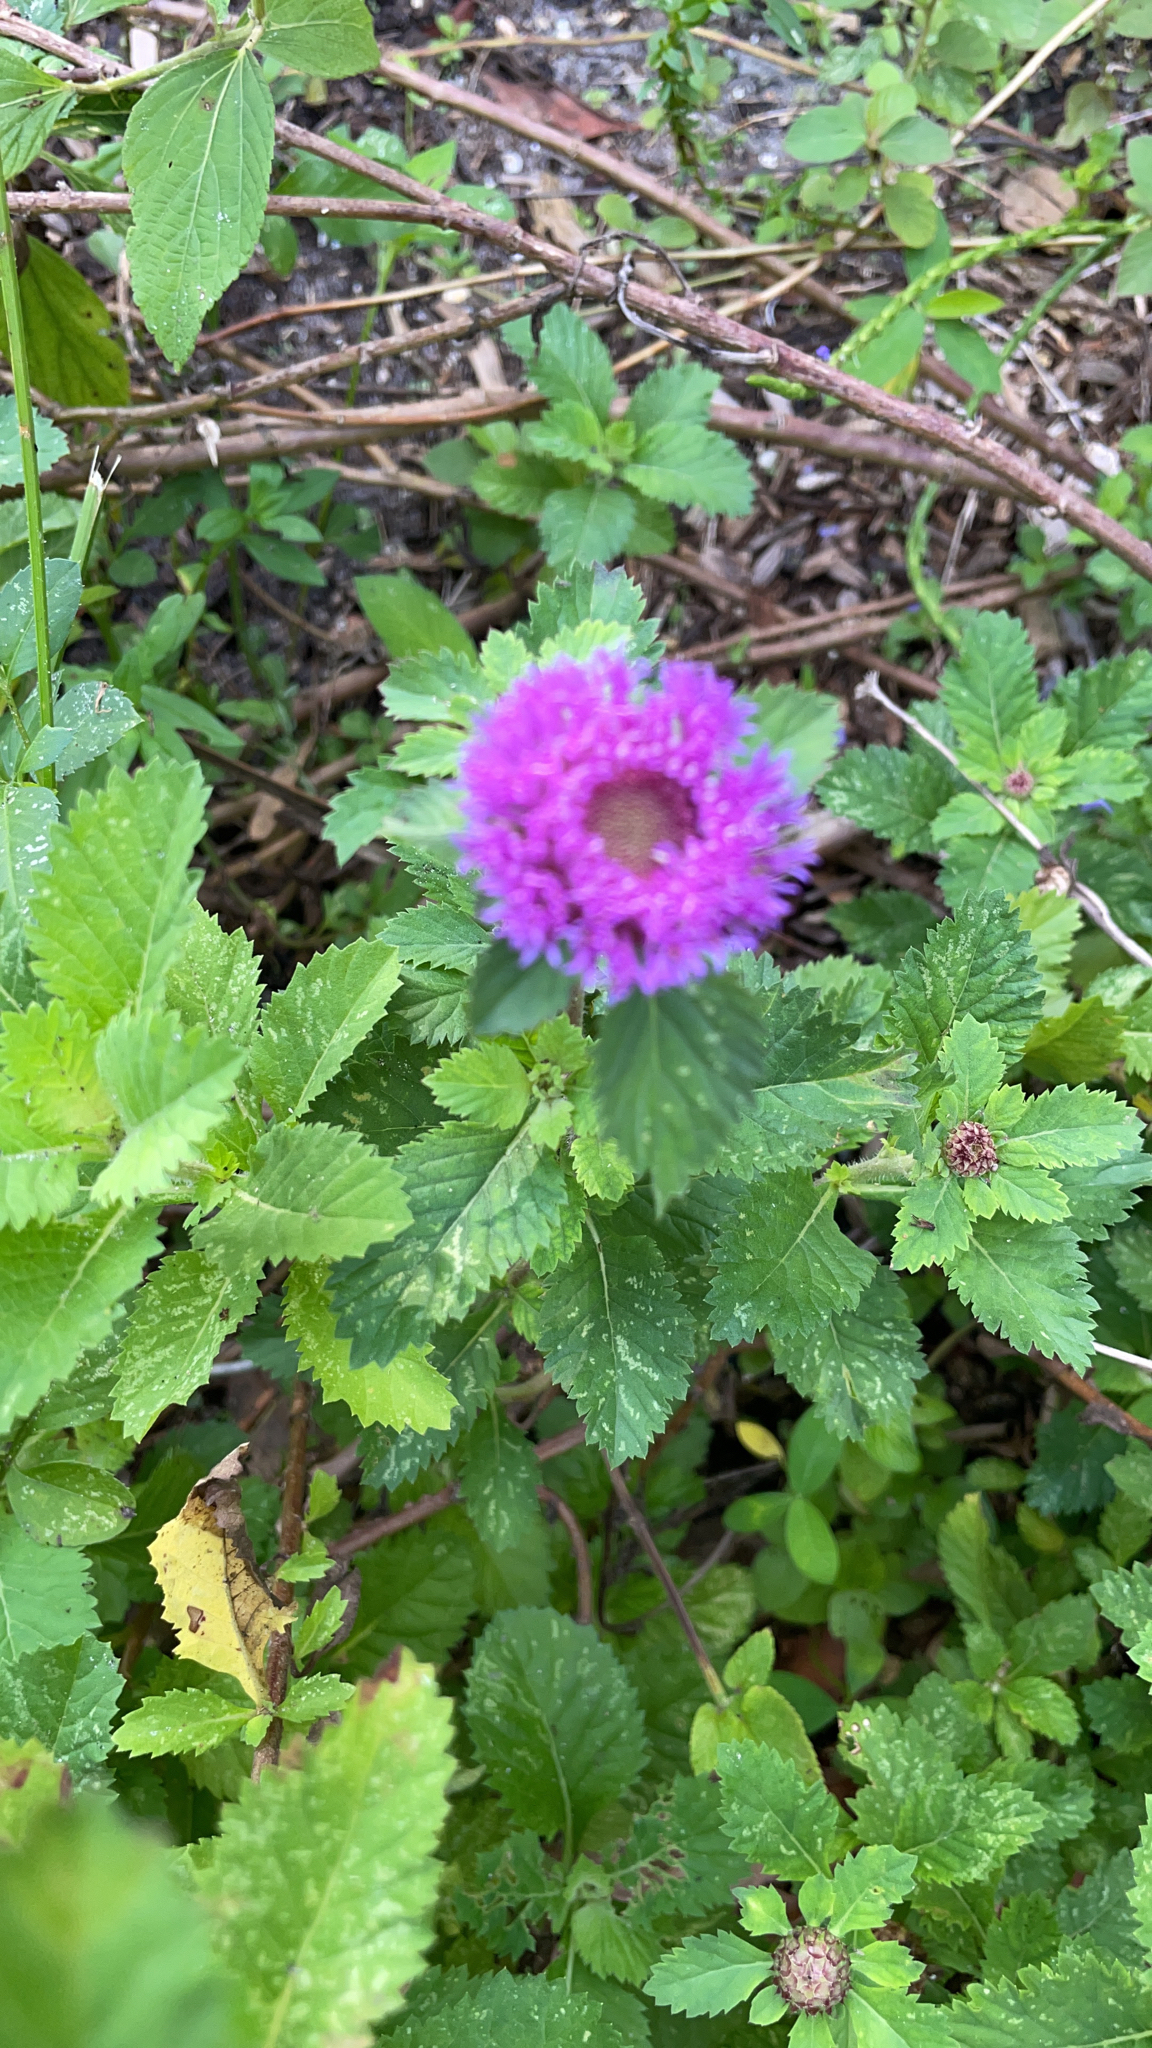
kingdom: Plantae
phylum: Tracheophyta
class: Magnoliopsida
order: Asterales
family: Asteraceae
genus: Centratherum
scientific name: Centratherum punctatum
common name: Larkdaisy
